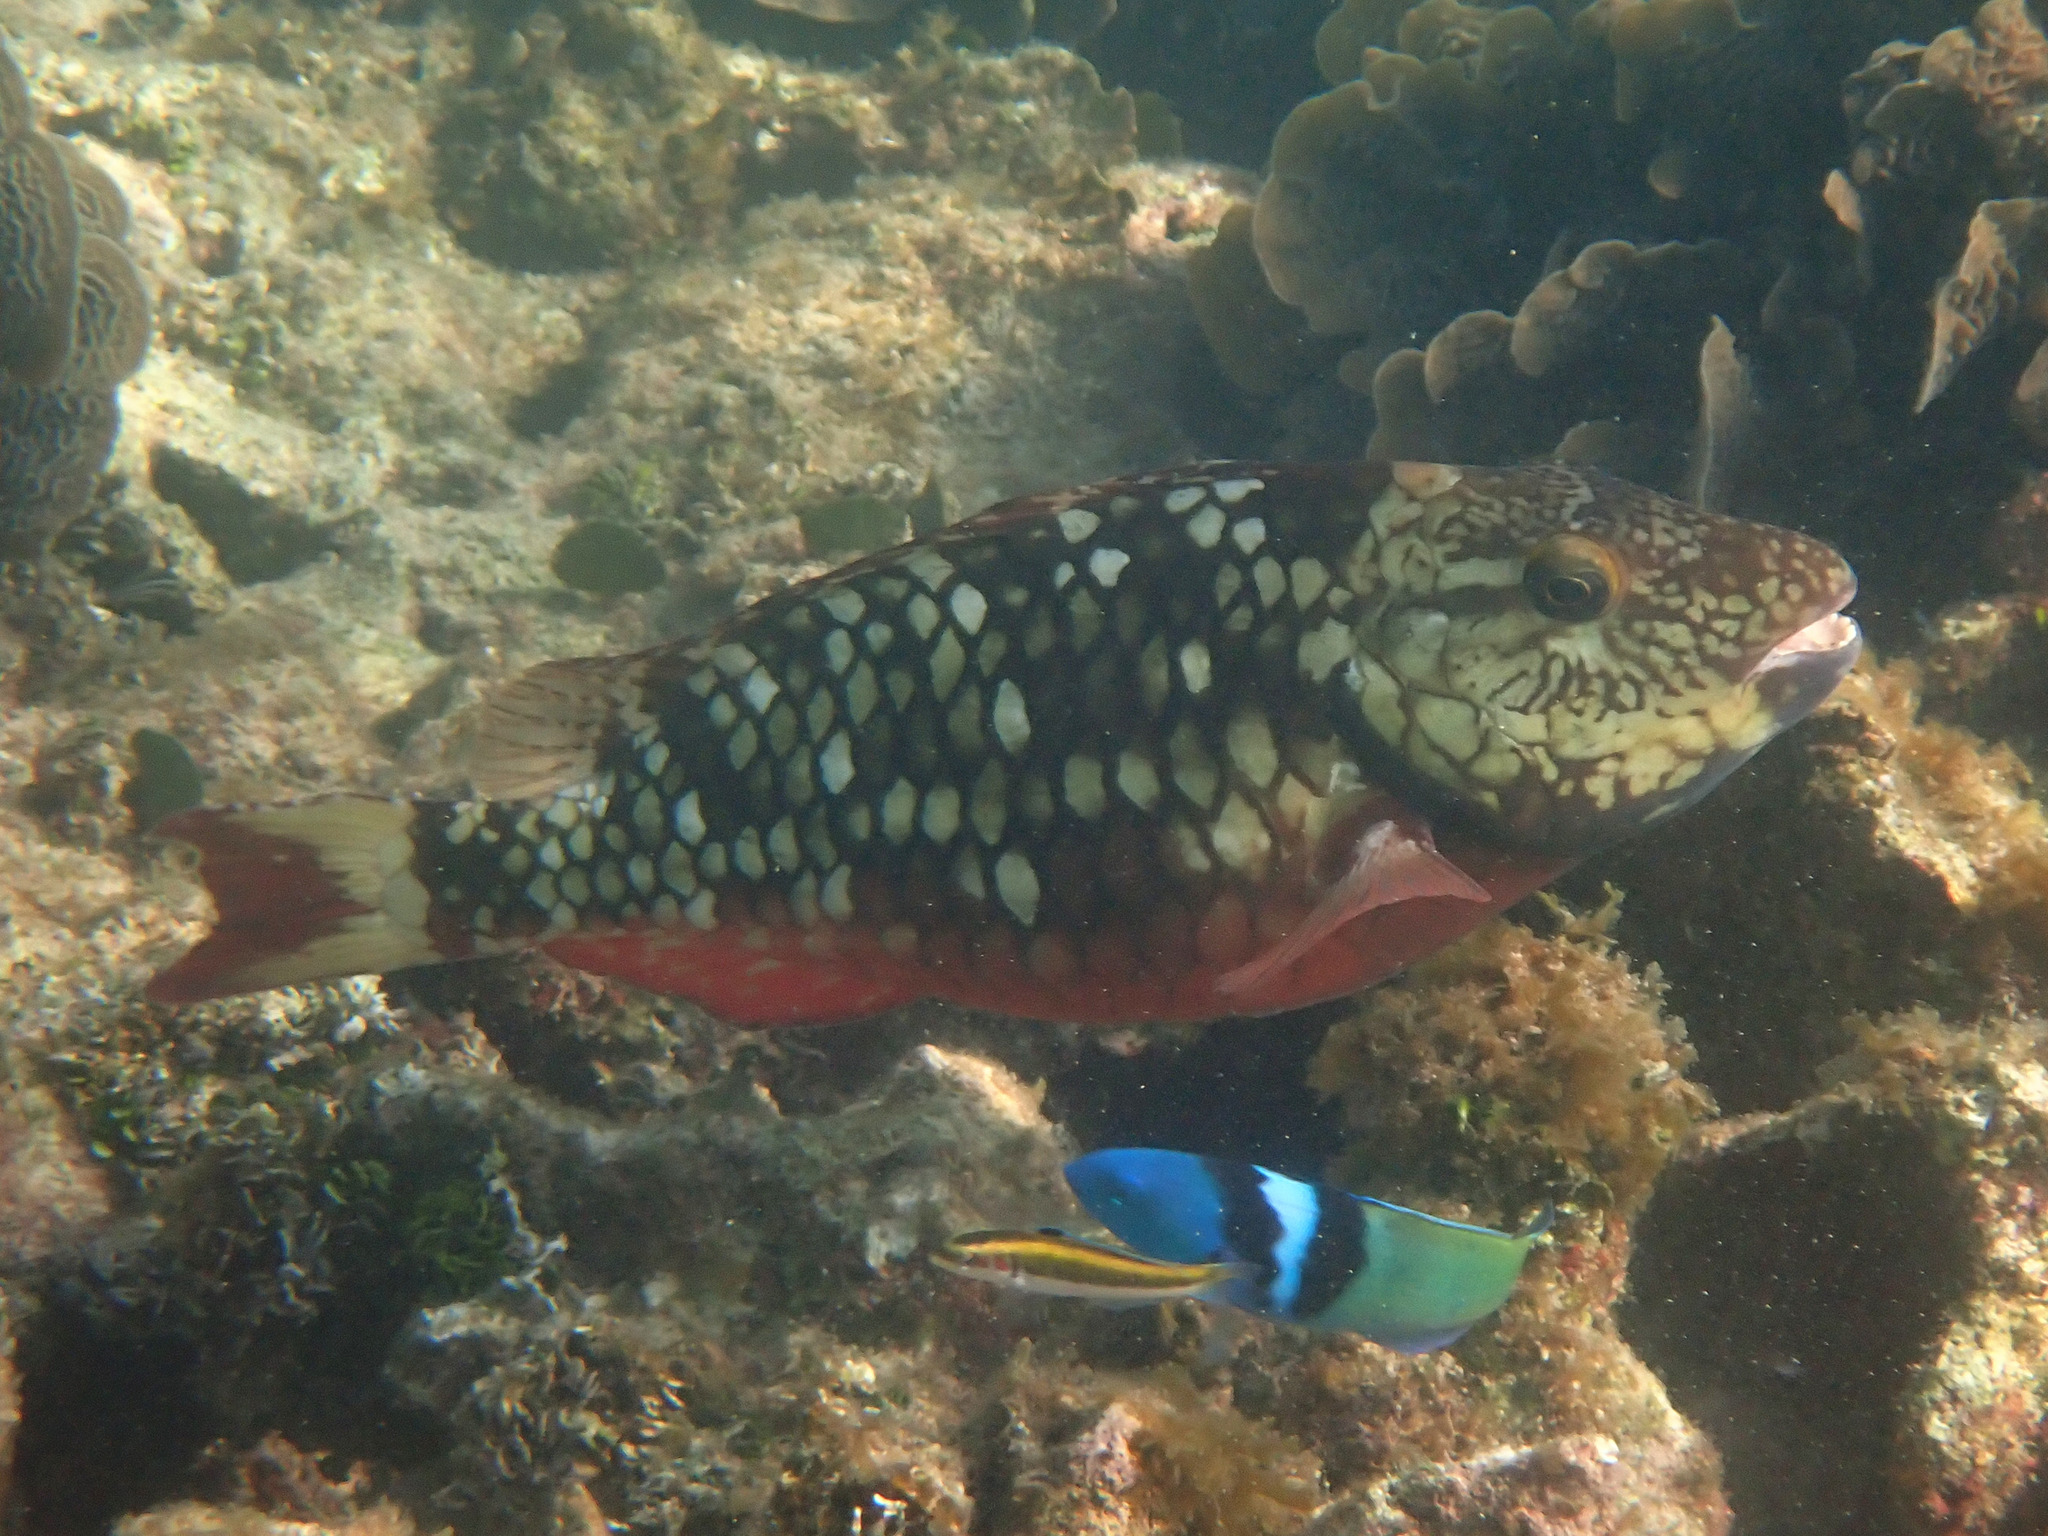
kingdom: Animalia
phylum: Chordata
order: Perciformes
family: Scaridae
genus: Sparisoma
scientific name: Sparisoma viride
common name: Stoplight parrotfish
